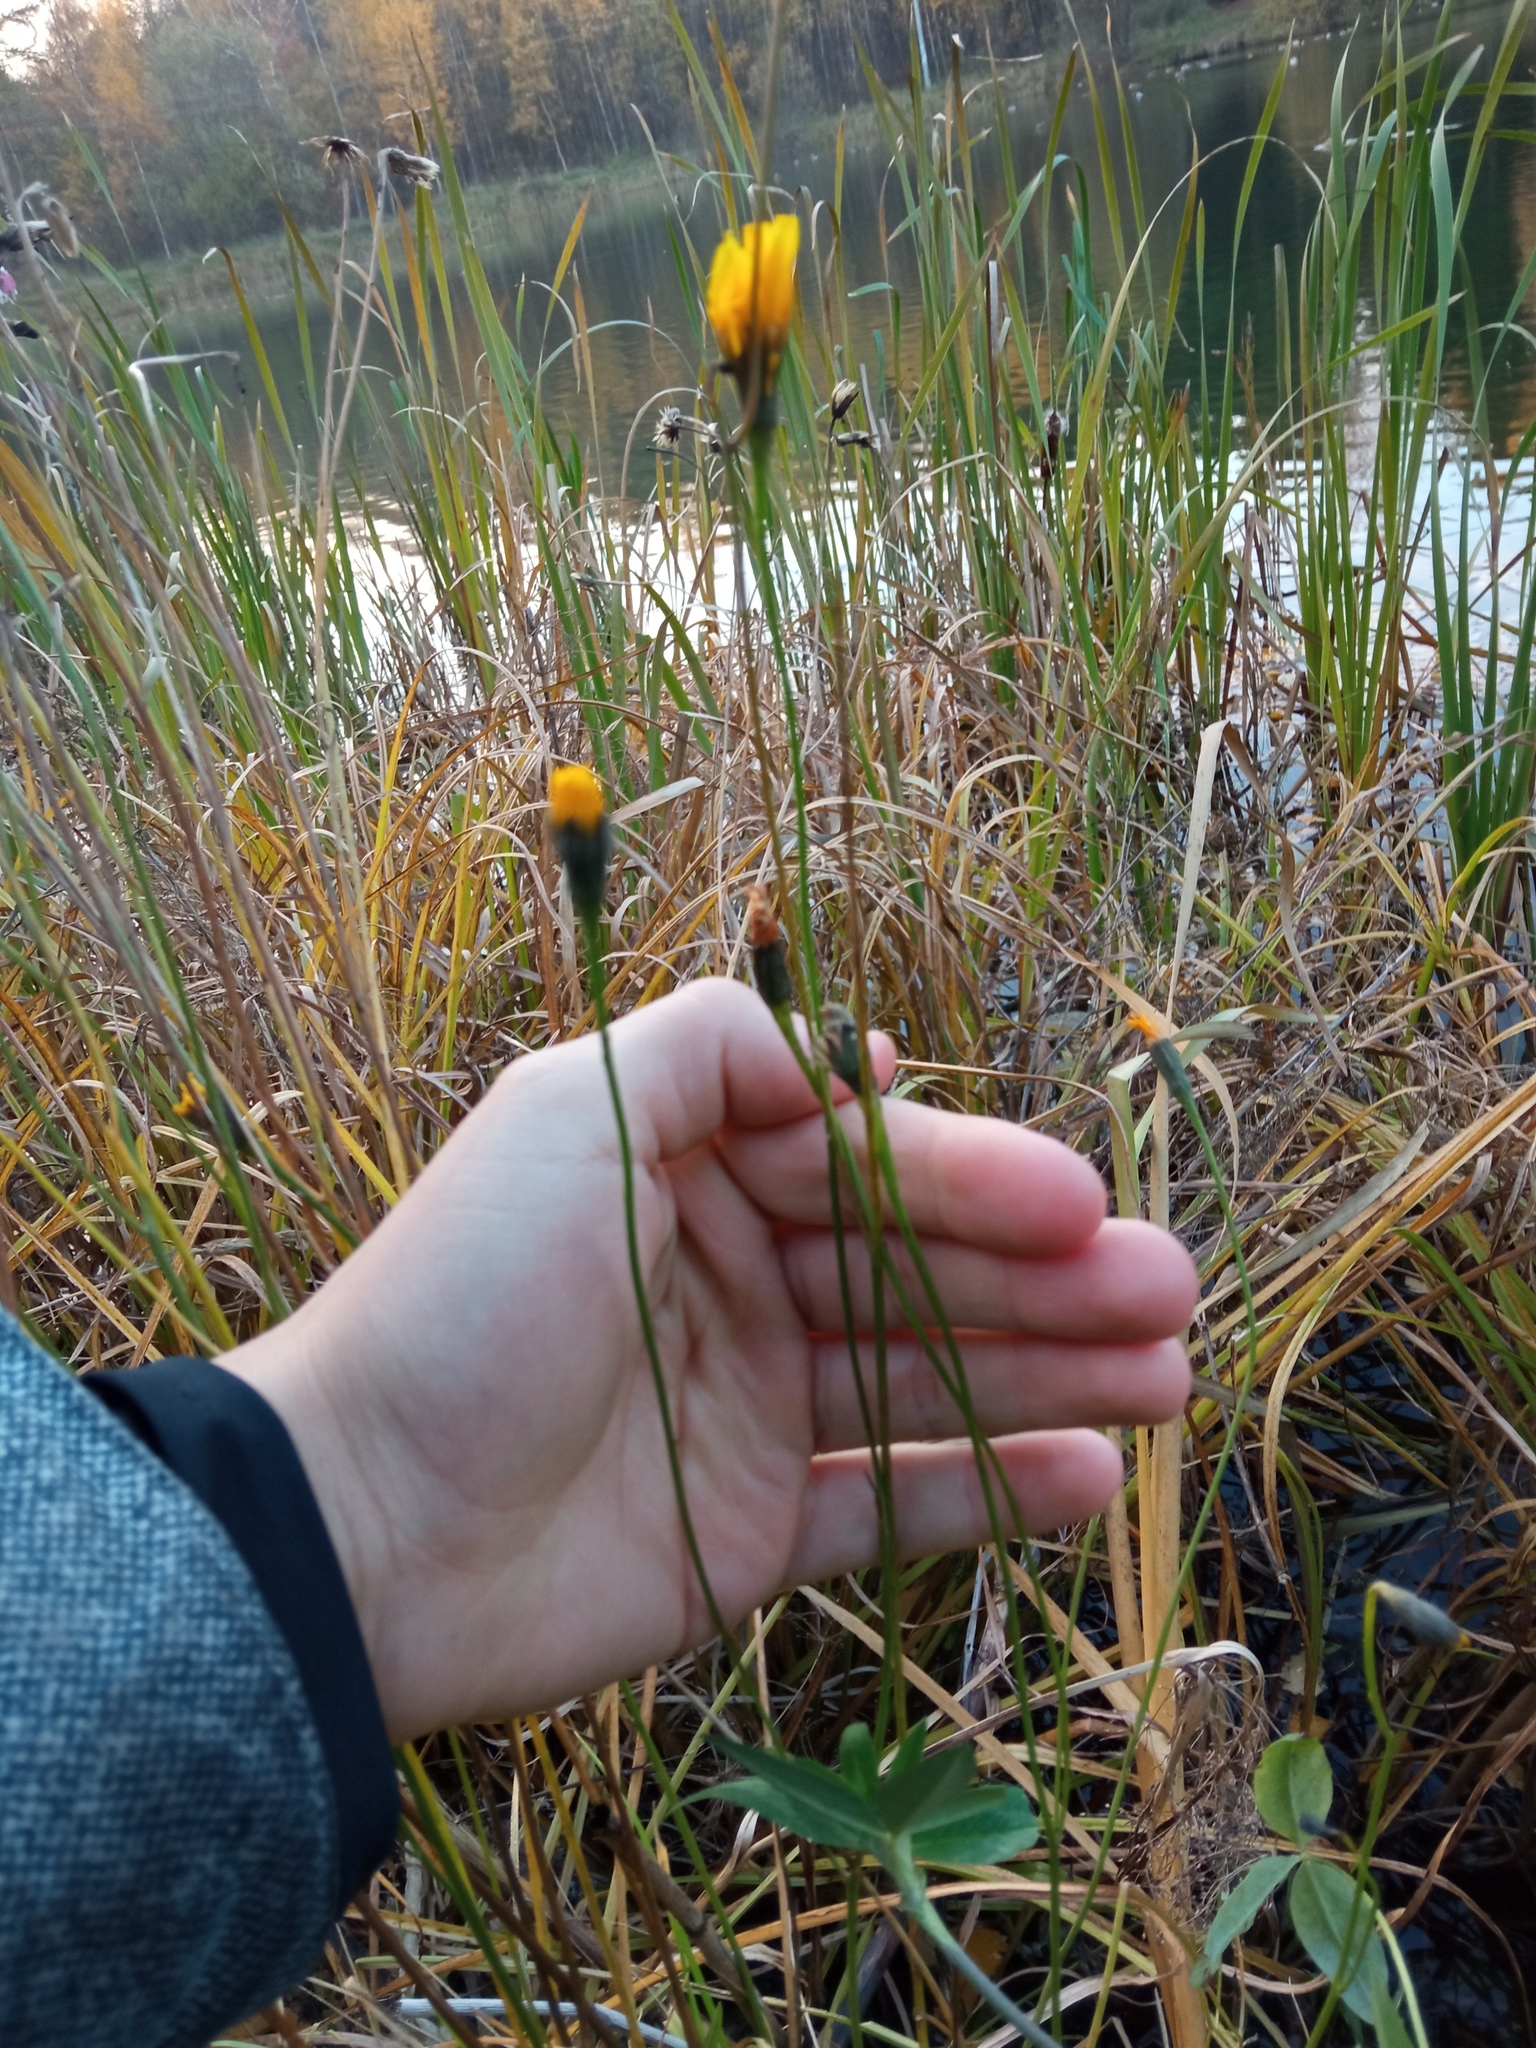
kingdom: Plantae
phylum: Tracheophyta
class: Magnoliopsida
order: Asterales
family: Asteraceae
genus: Scorzoneroides
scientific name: Scorzoneroides autumnalis
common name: Autumn hawkbit
